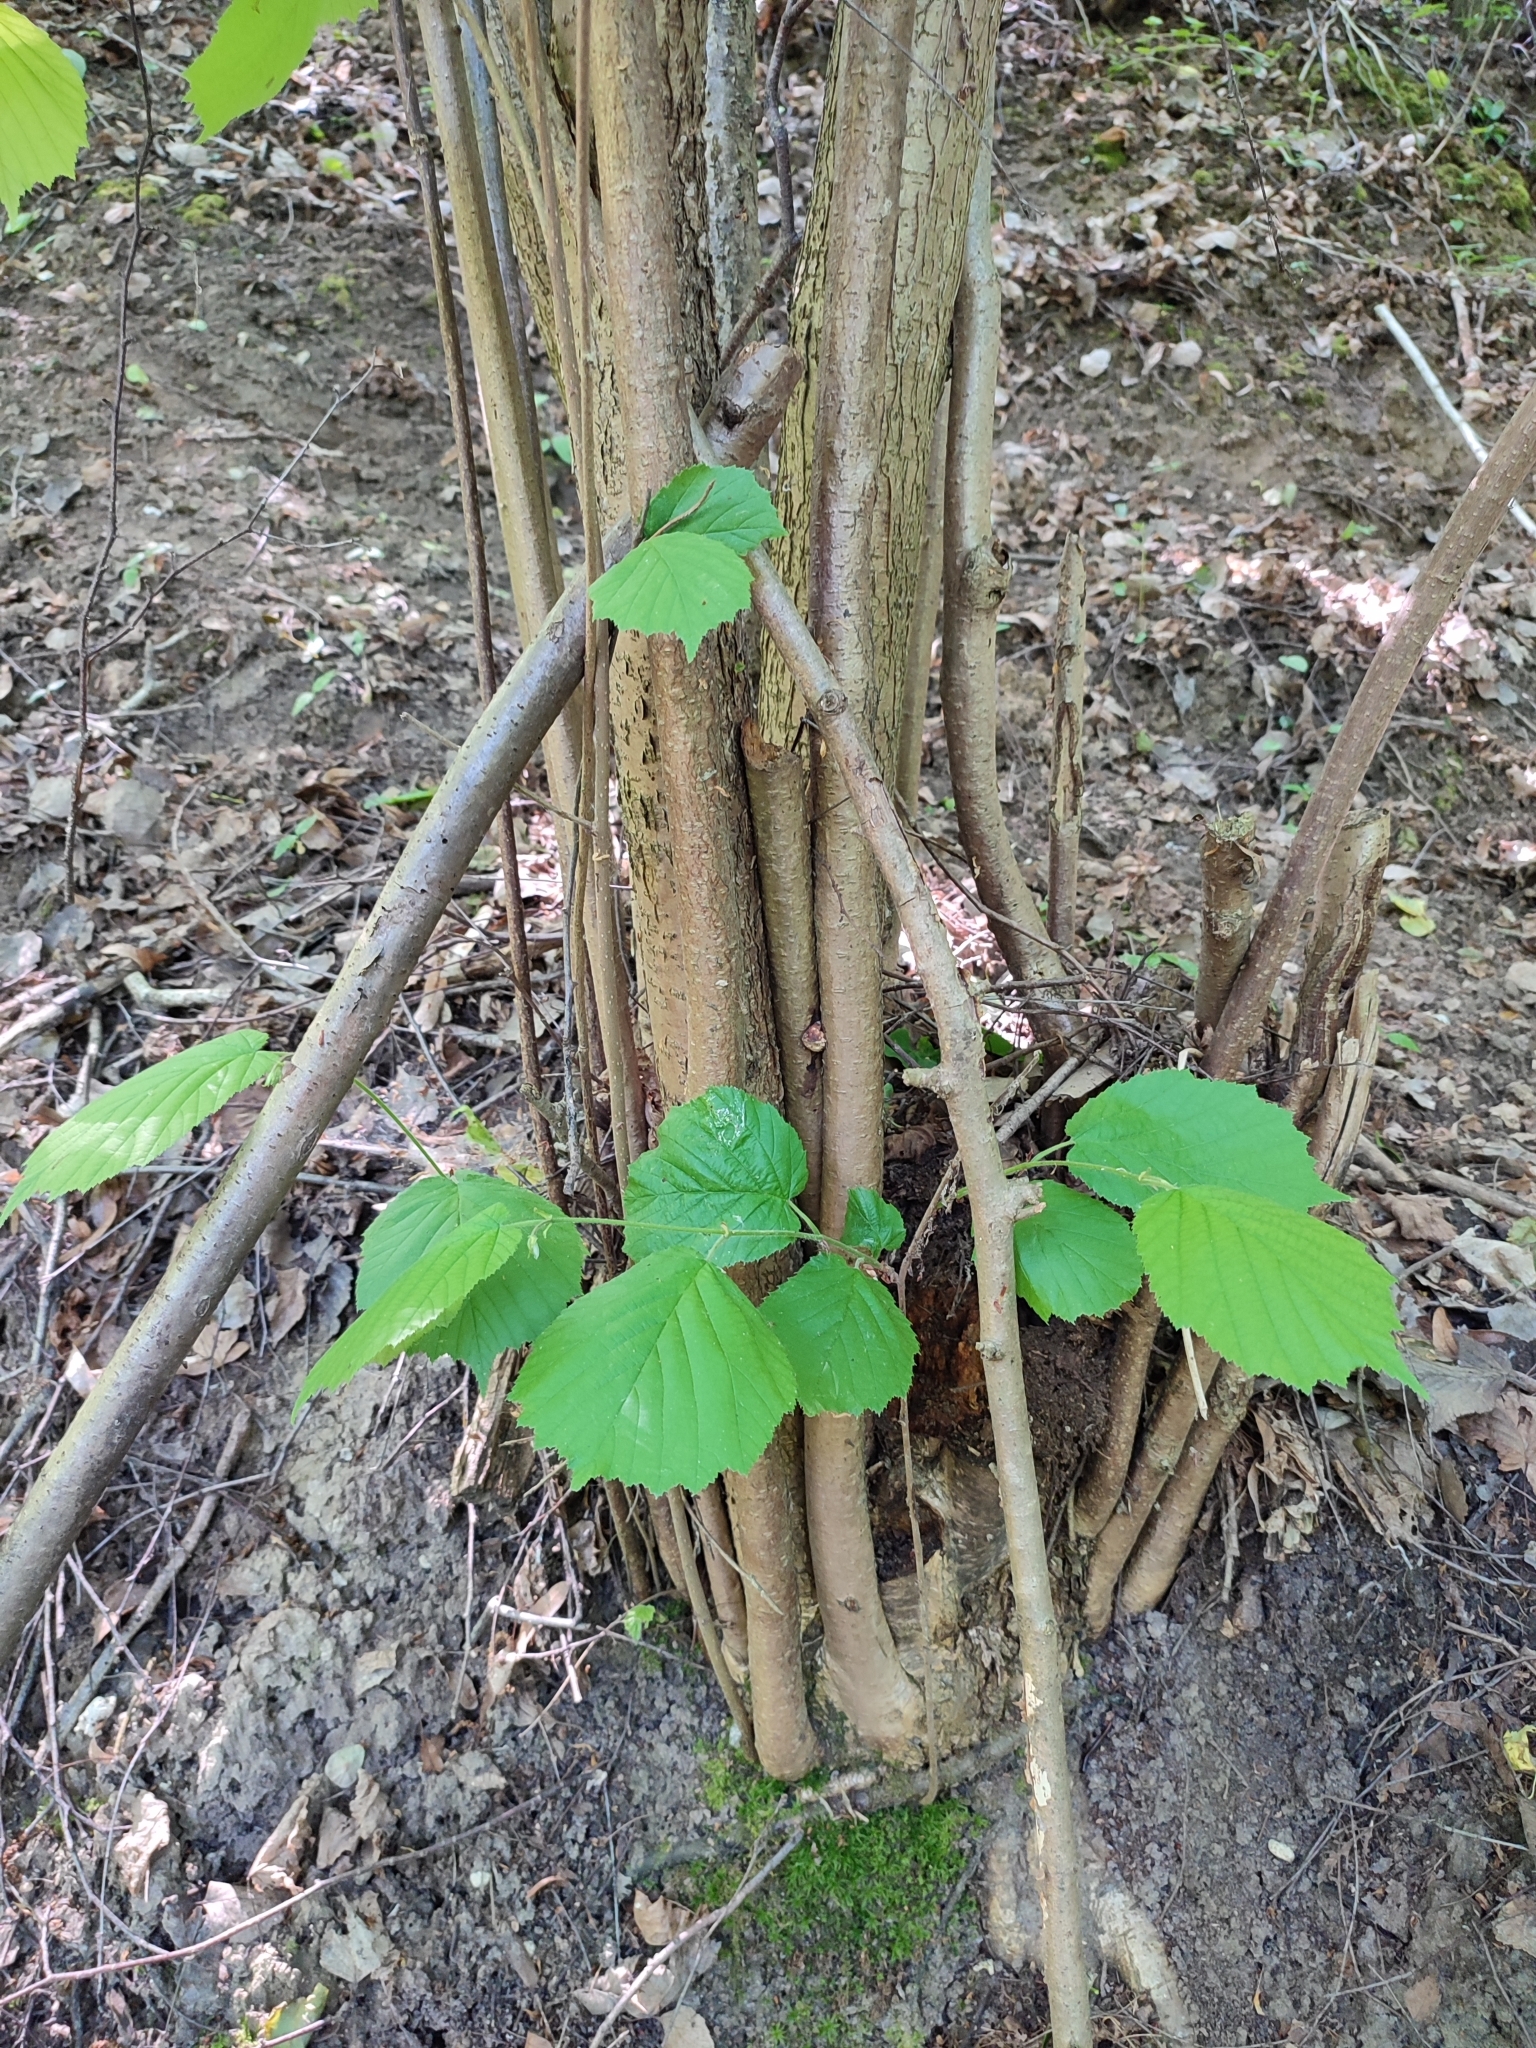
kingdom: Plantae
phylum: Tracheophyta
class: Magnoliopsida
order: Fagales
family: Betulaceae
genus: Corylus
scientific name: Corylus avellana
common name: European hazel
